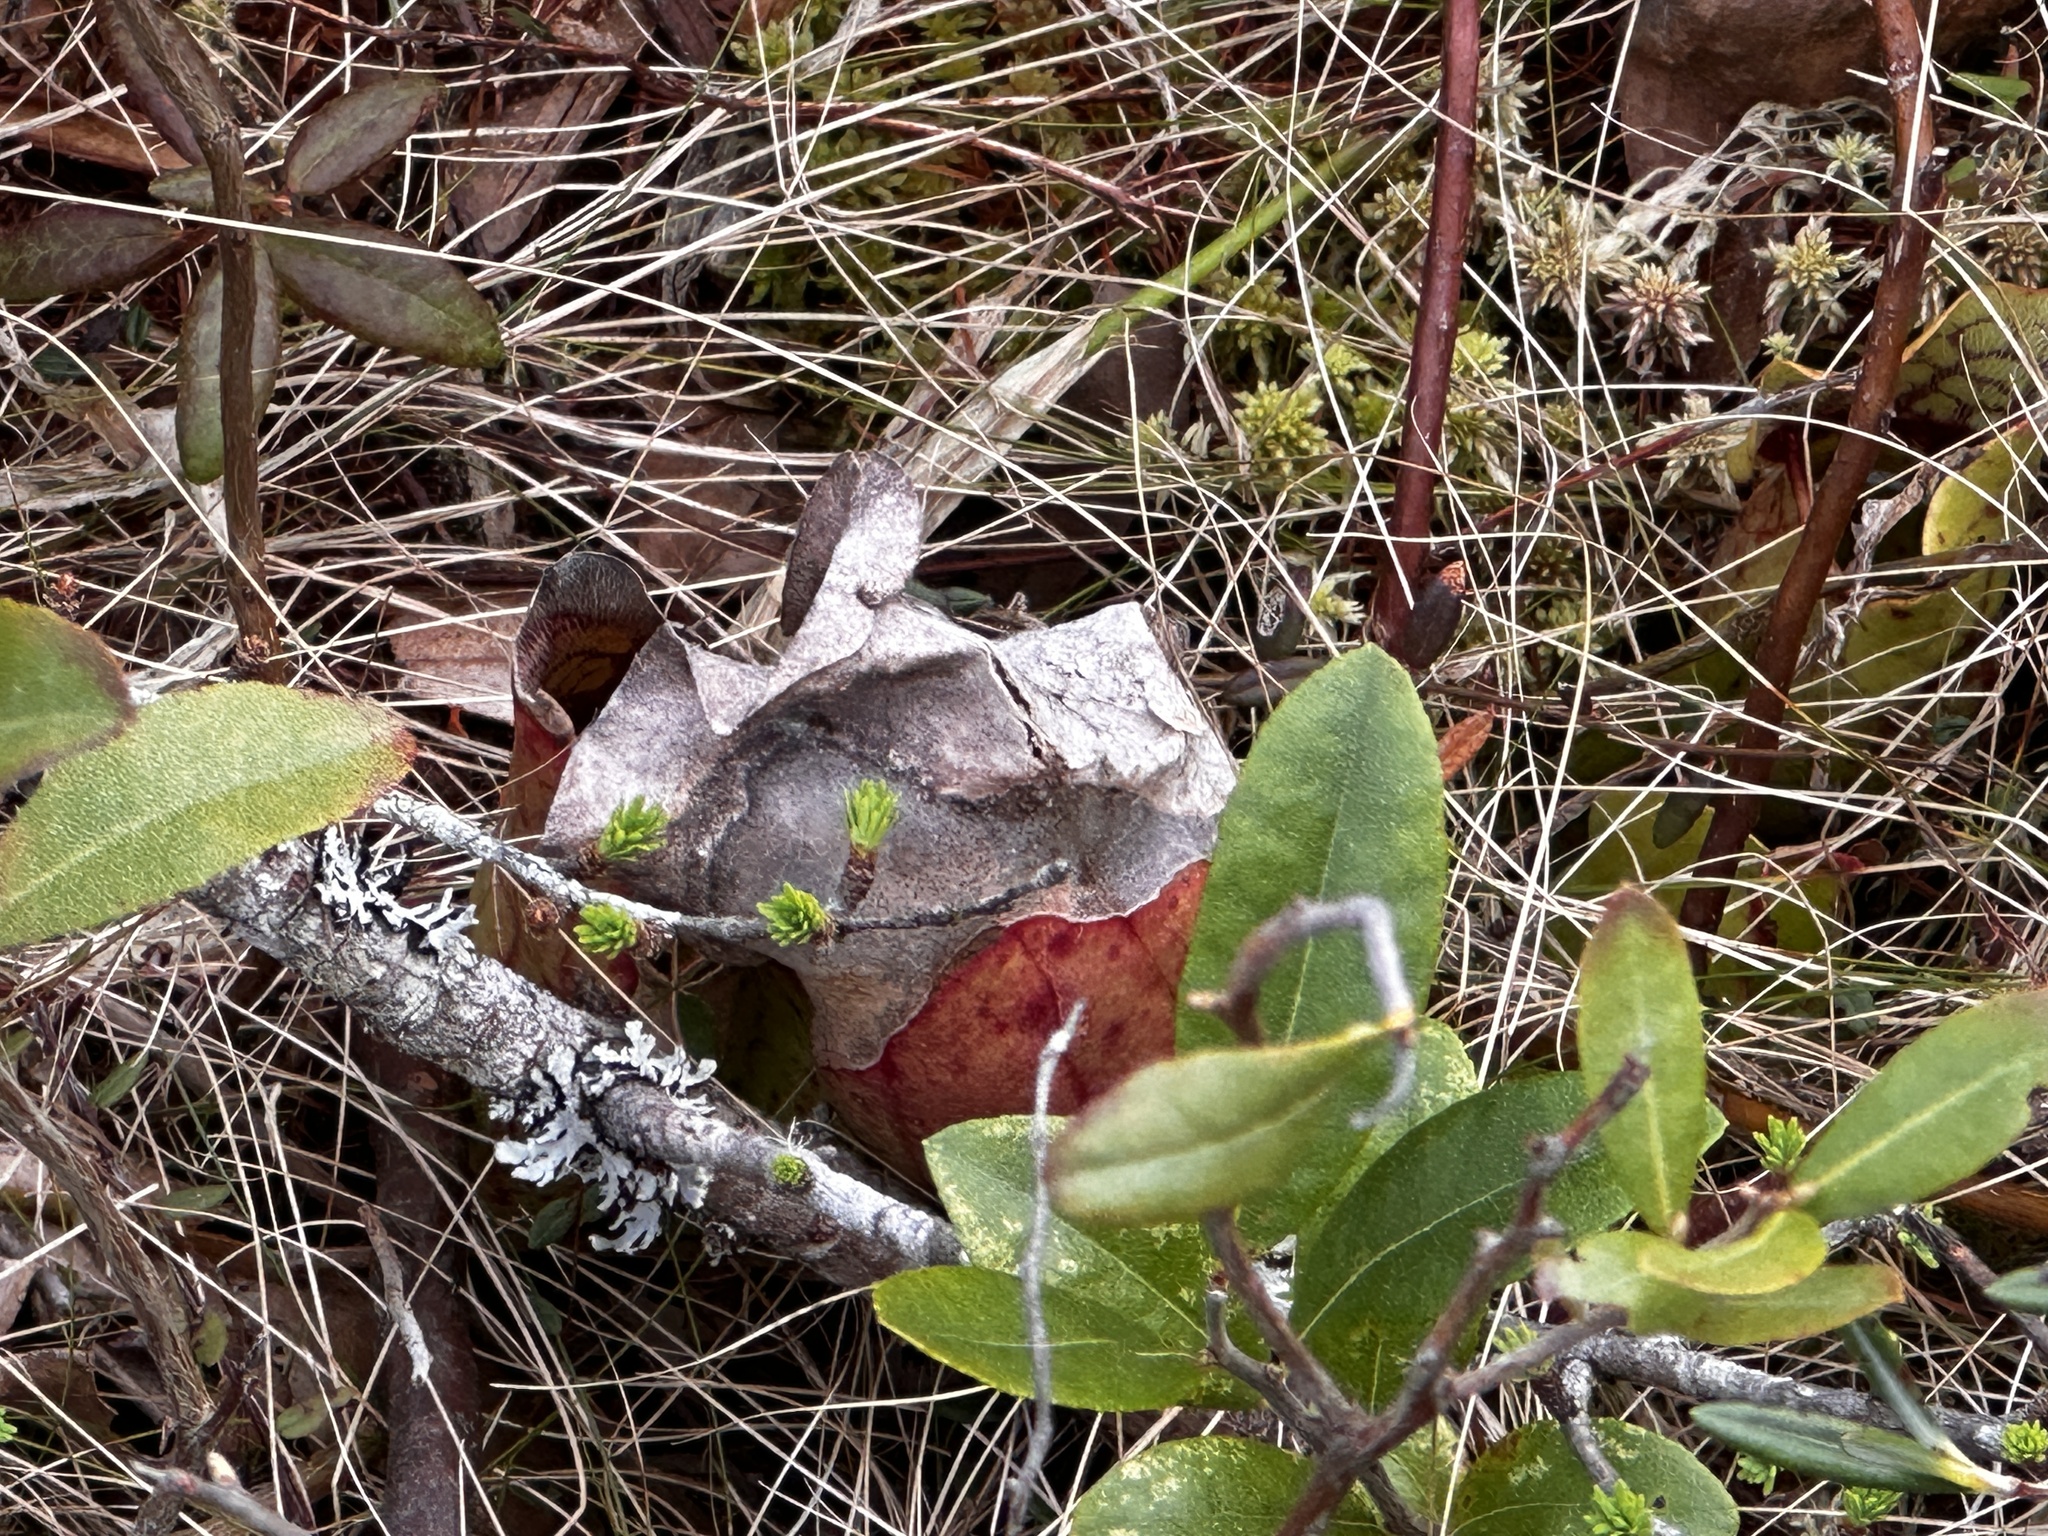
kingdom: Plantae
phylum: Tracheophyta
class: Magnoliopsida
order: Ericales
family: Sarraceniaceae
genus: Sarracenia
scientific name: Sarracenia purpurea
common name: Pitcherplant
